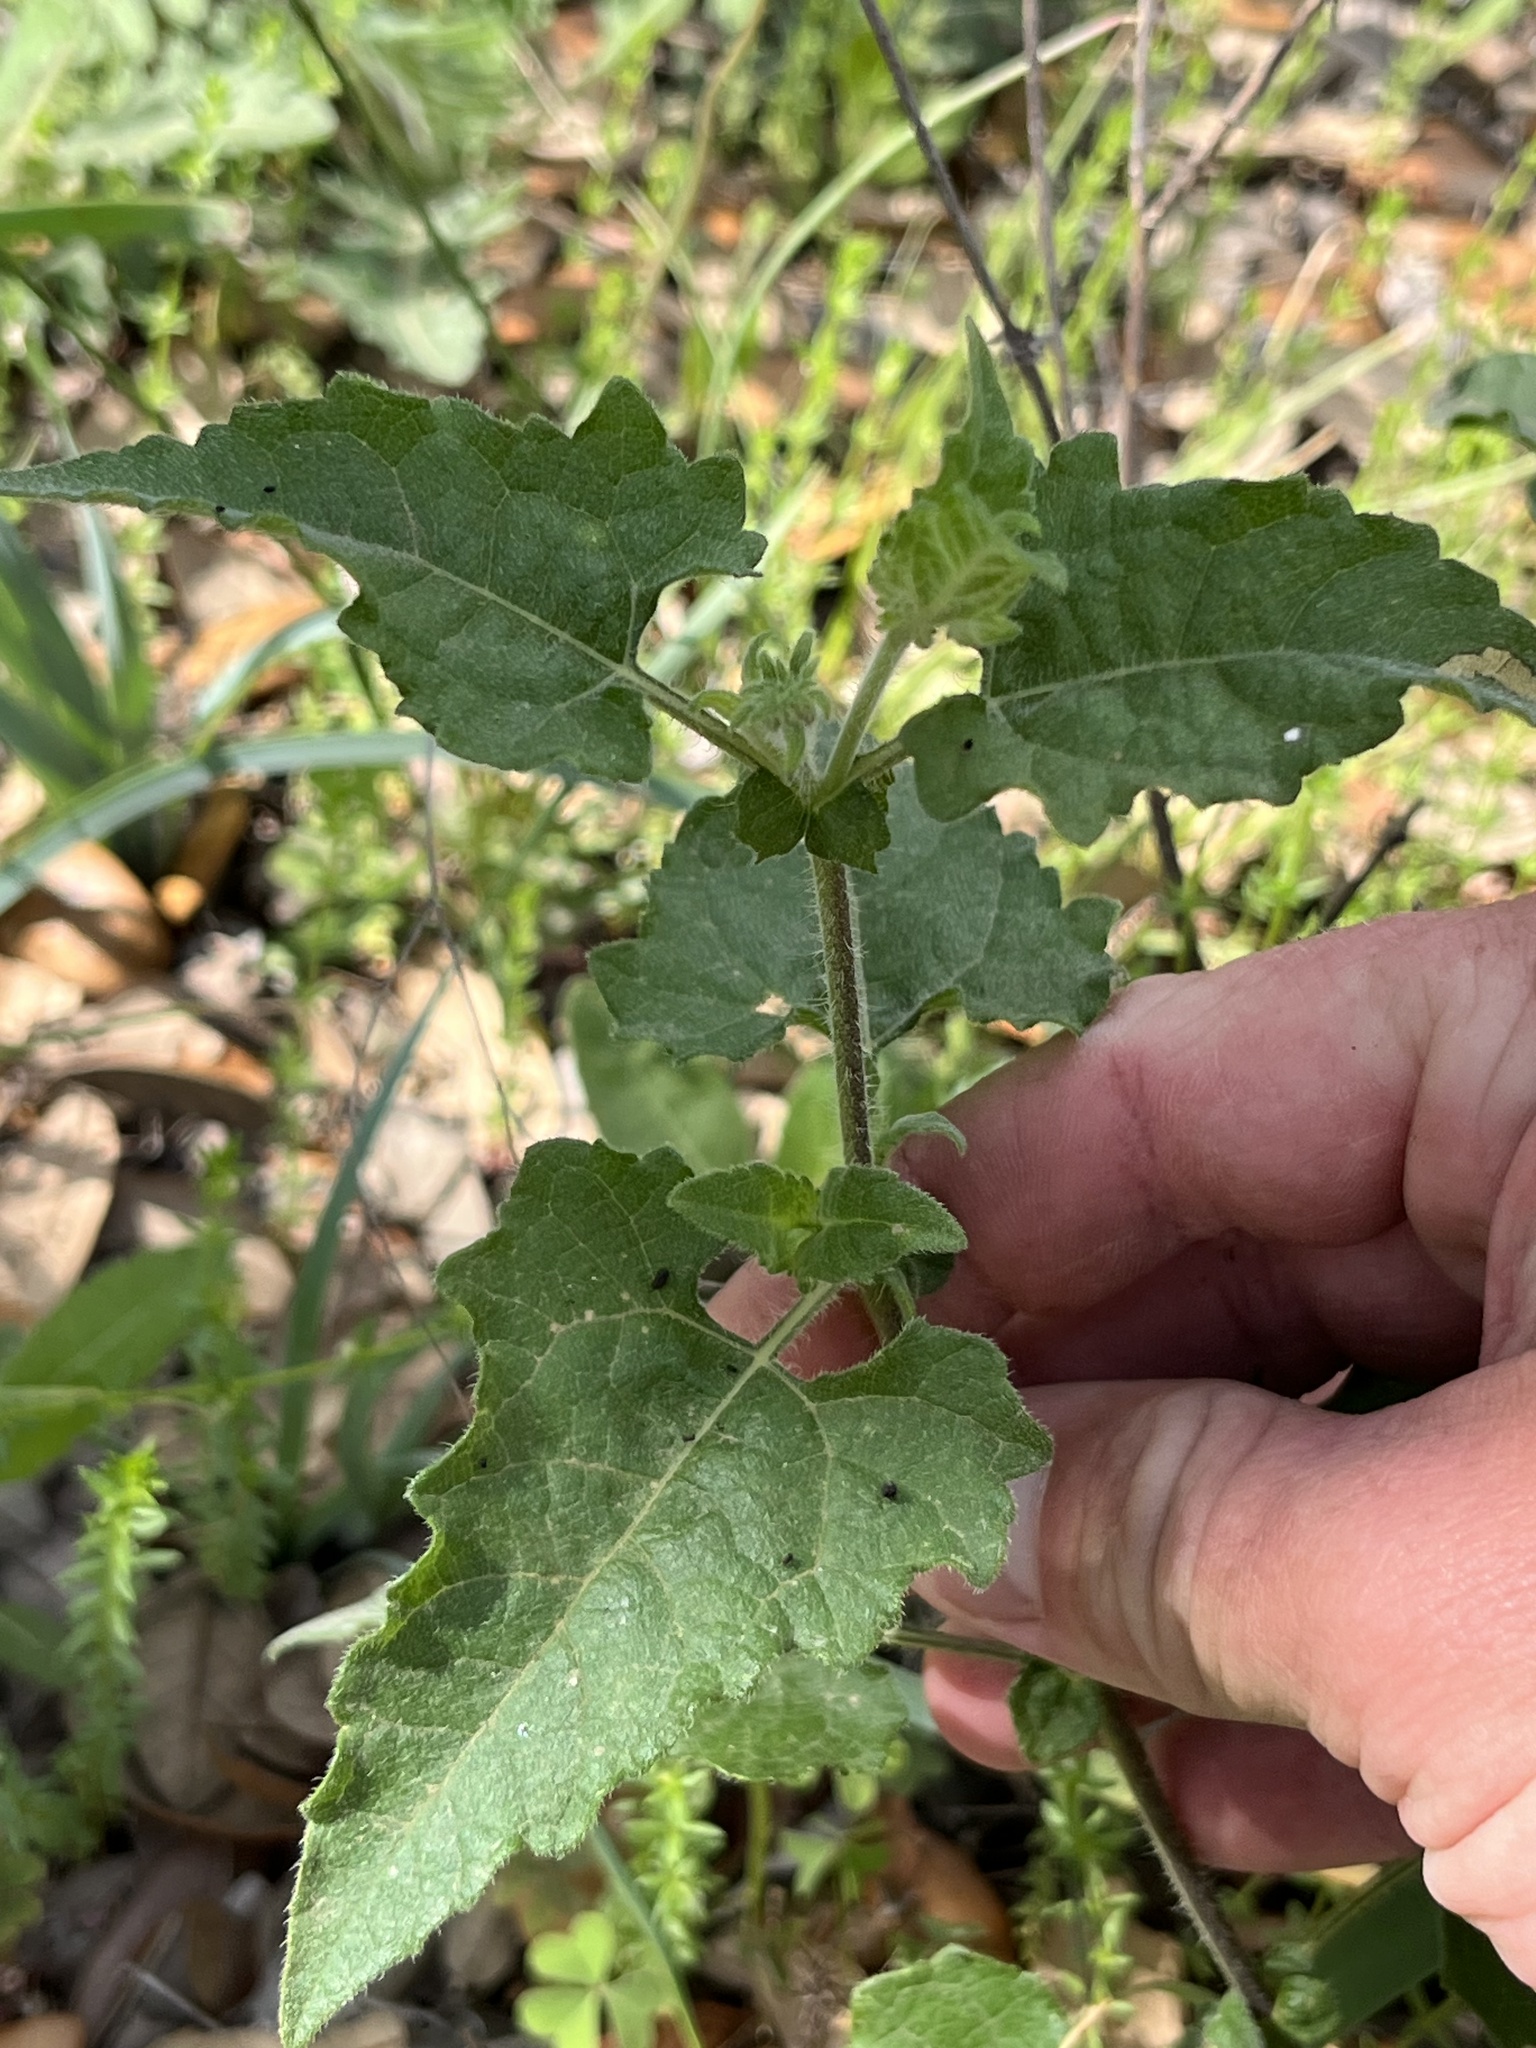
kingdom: Plantae
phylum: Tracheophyta
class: Magnoliopsida
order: Asterales
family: Asteraceae
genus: Simsia
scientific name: Simsia calva
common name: Awnless bush-sunflower
